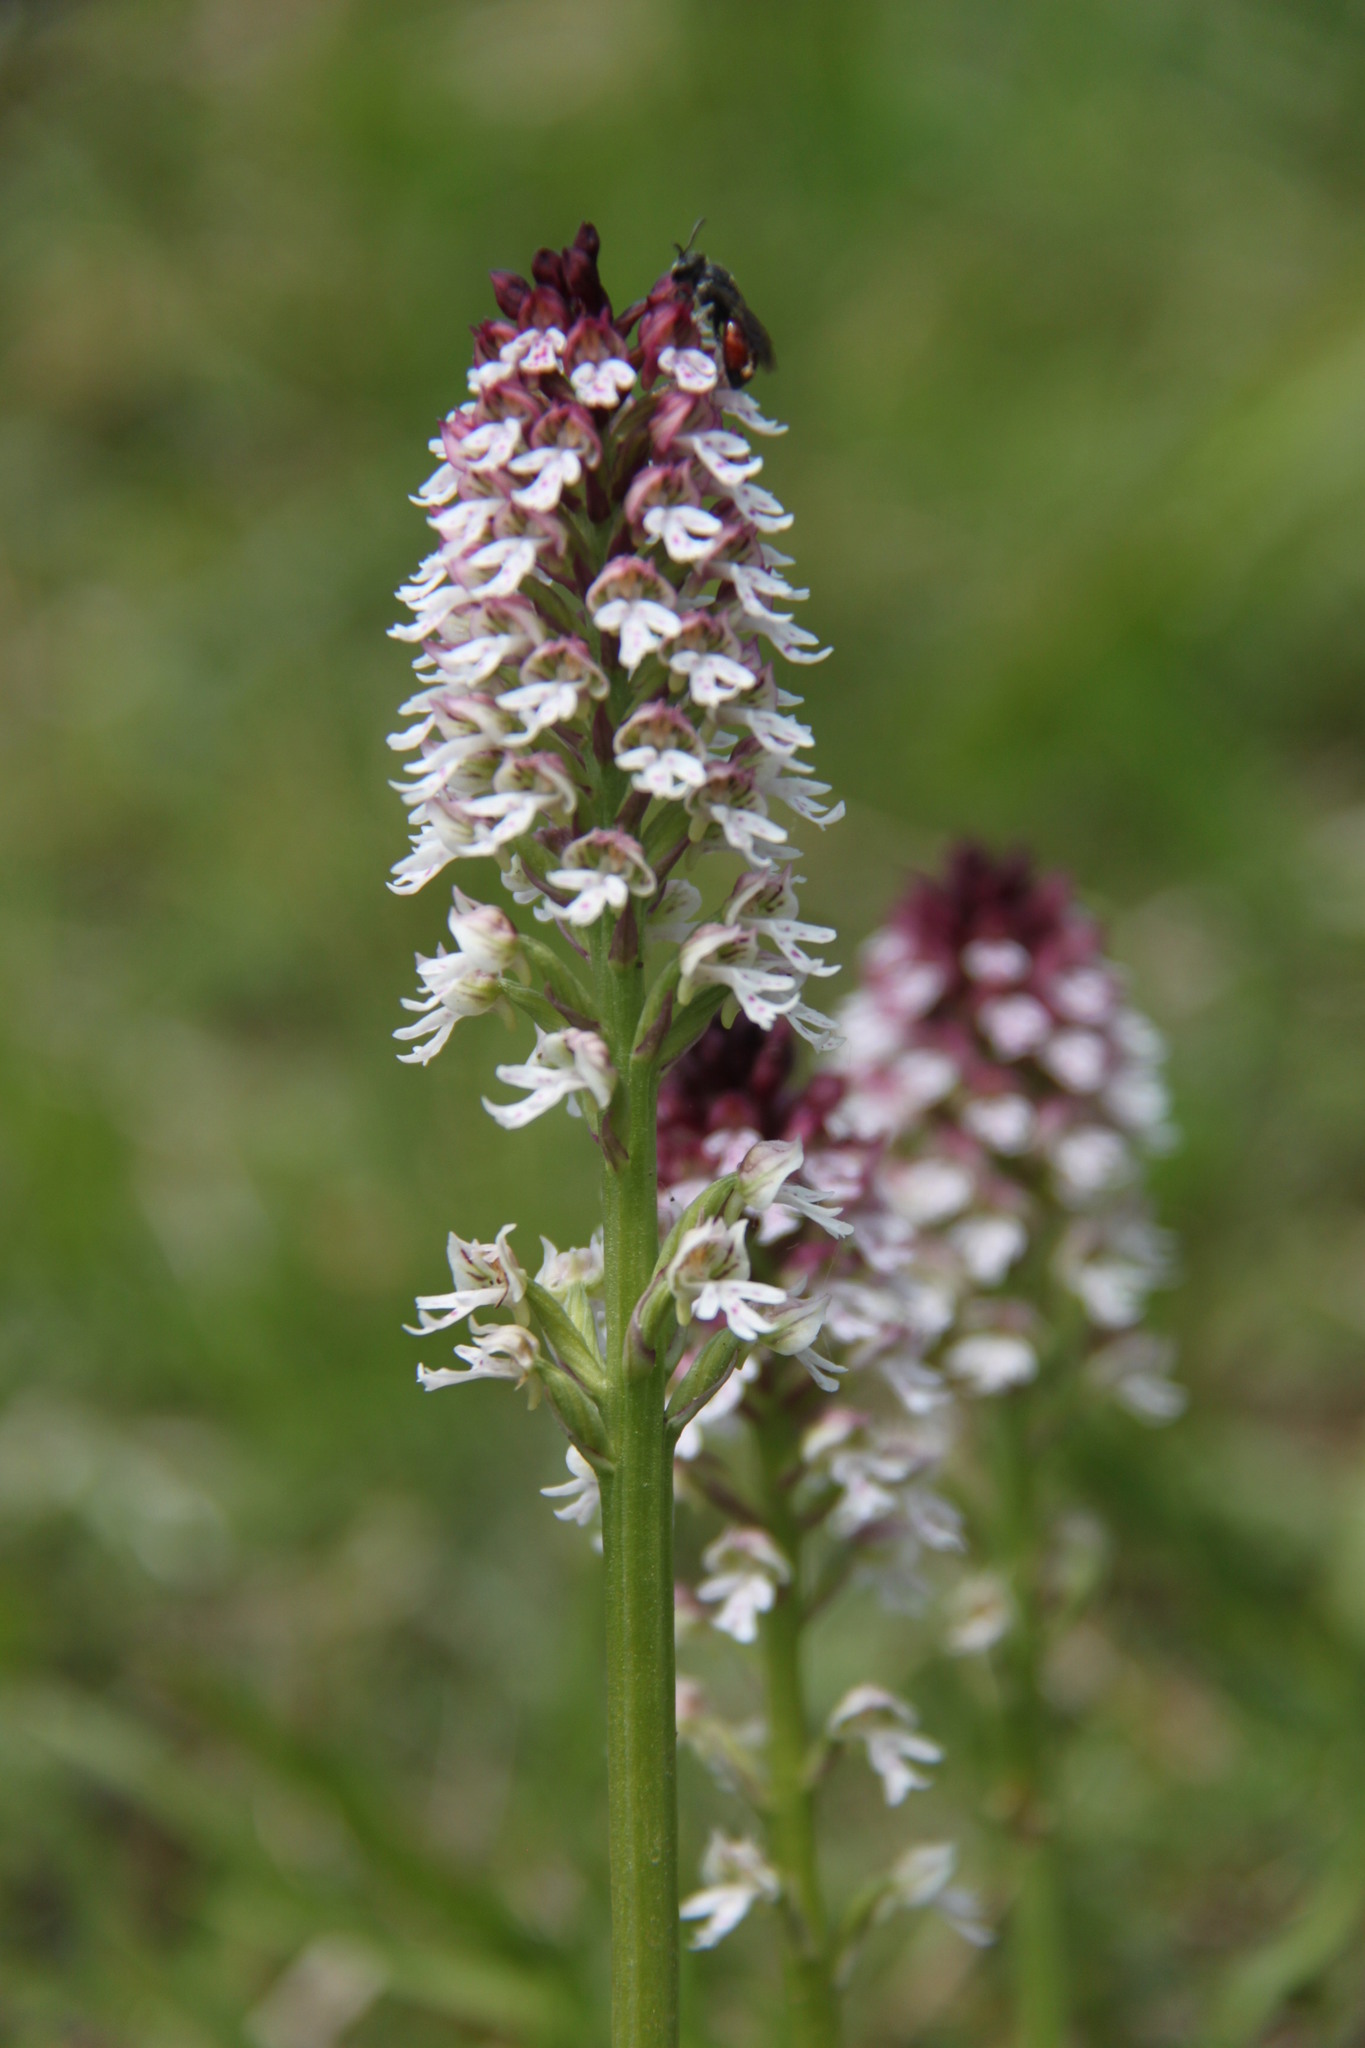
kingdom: Plantae
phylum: Tracheophyta
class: Liliopsida
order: Asparagales
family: Orchidaceae
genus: Neotinea
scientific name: Neotinea ustulata
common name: Burnt orchid
